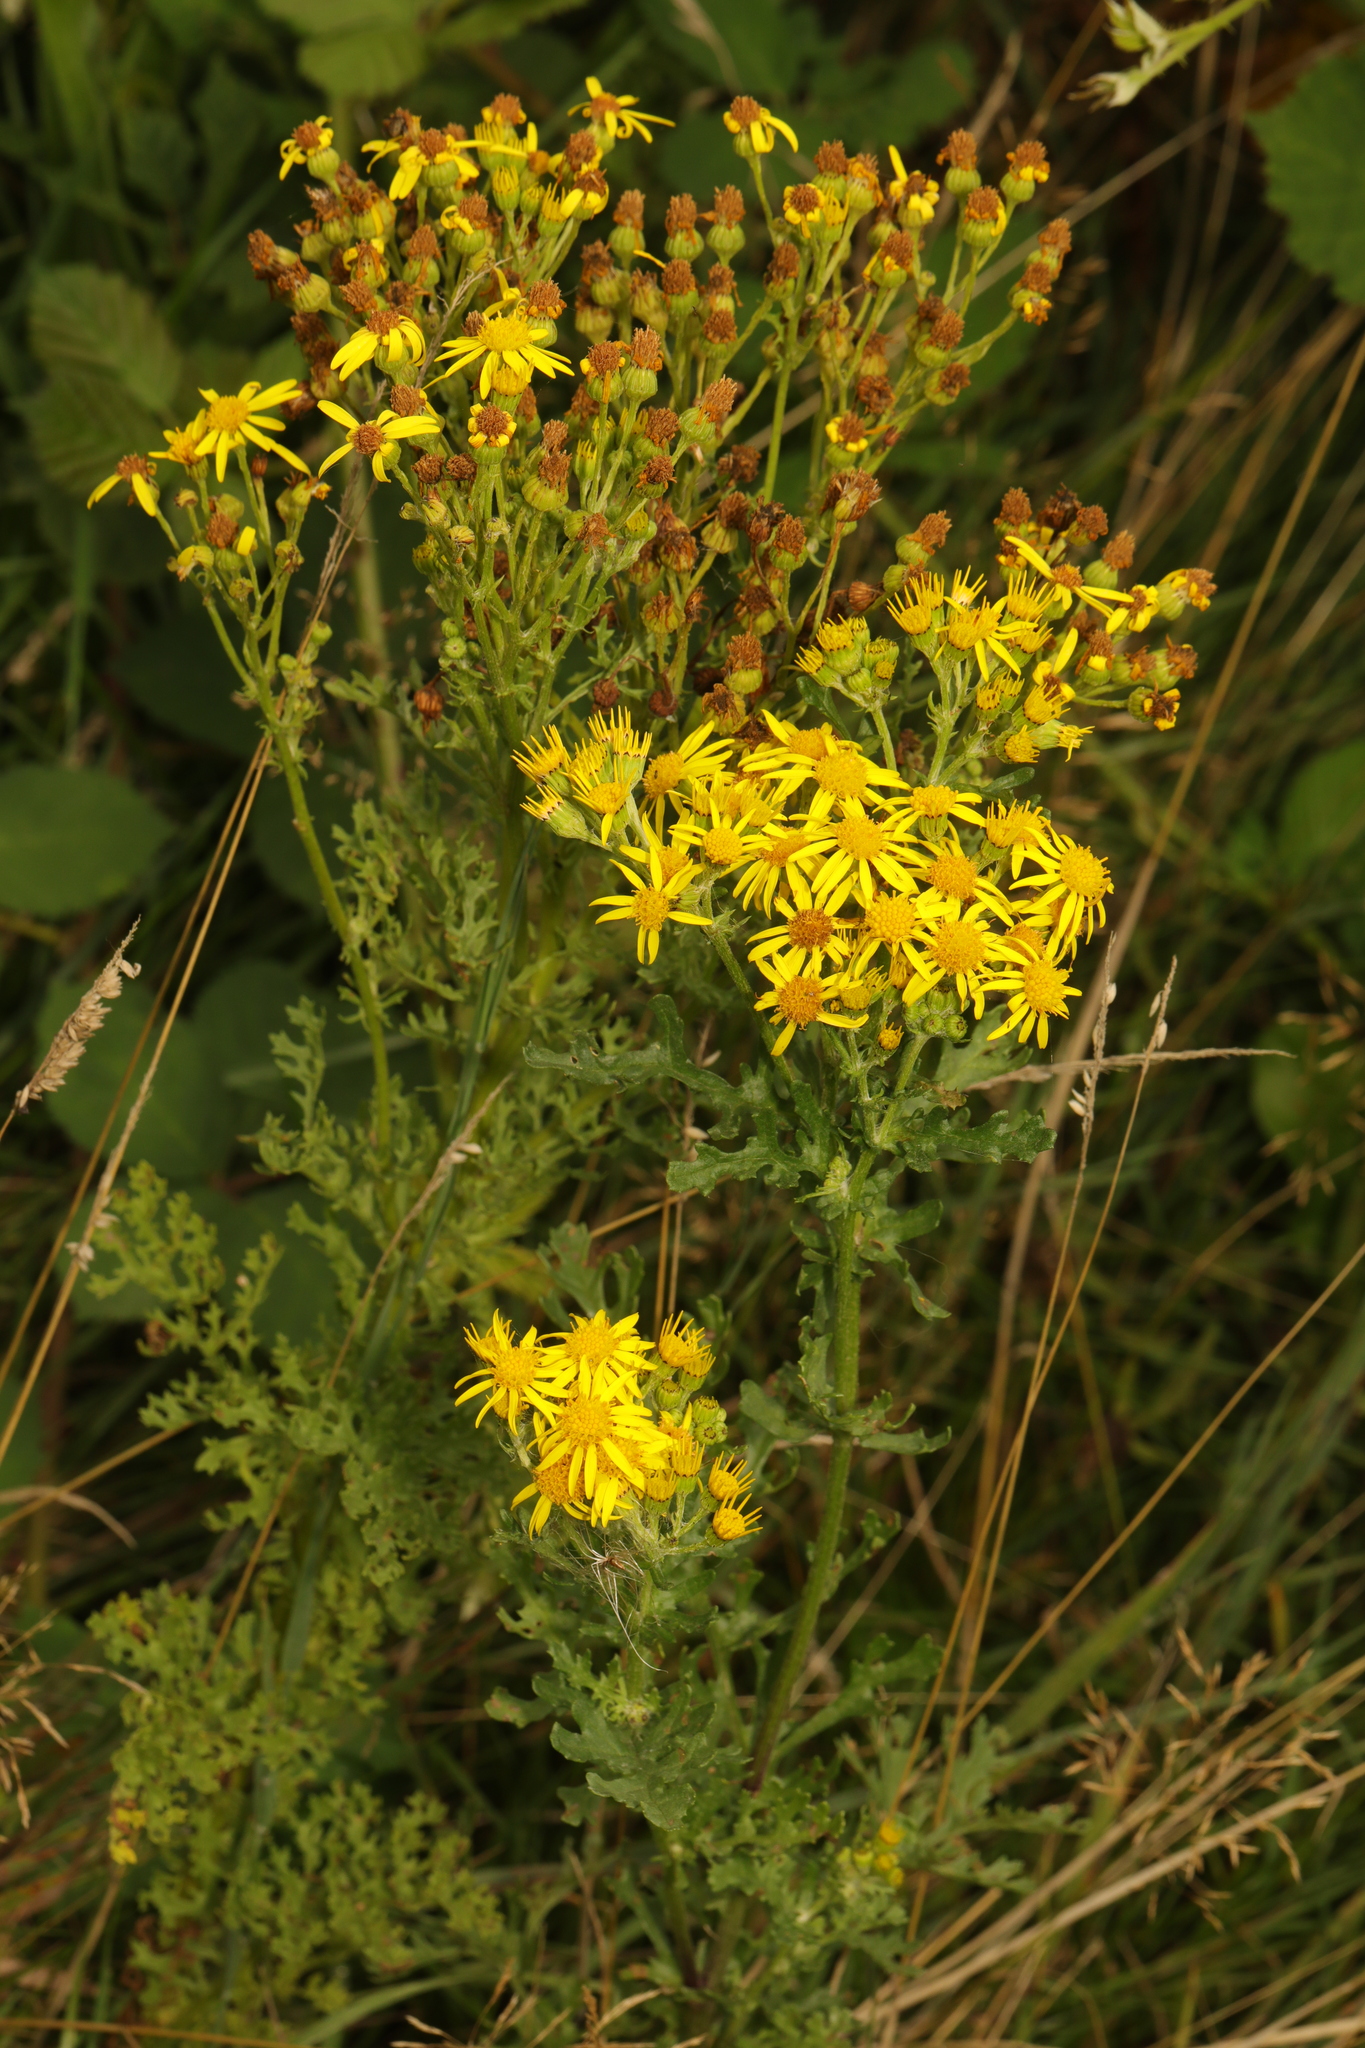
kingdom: Plantae
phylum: Tracheophyta
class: Magnoliopsida
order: Asterales
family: Asteraceae
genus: Jacobaea
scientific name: Jacobaea vulgaris
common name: Stinking willie
